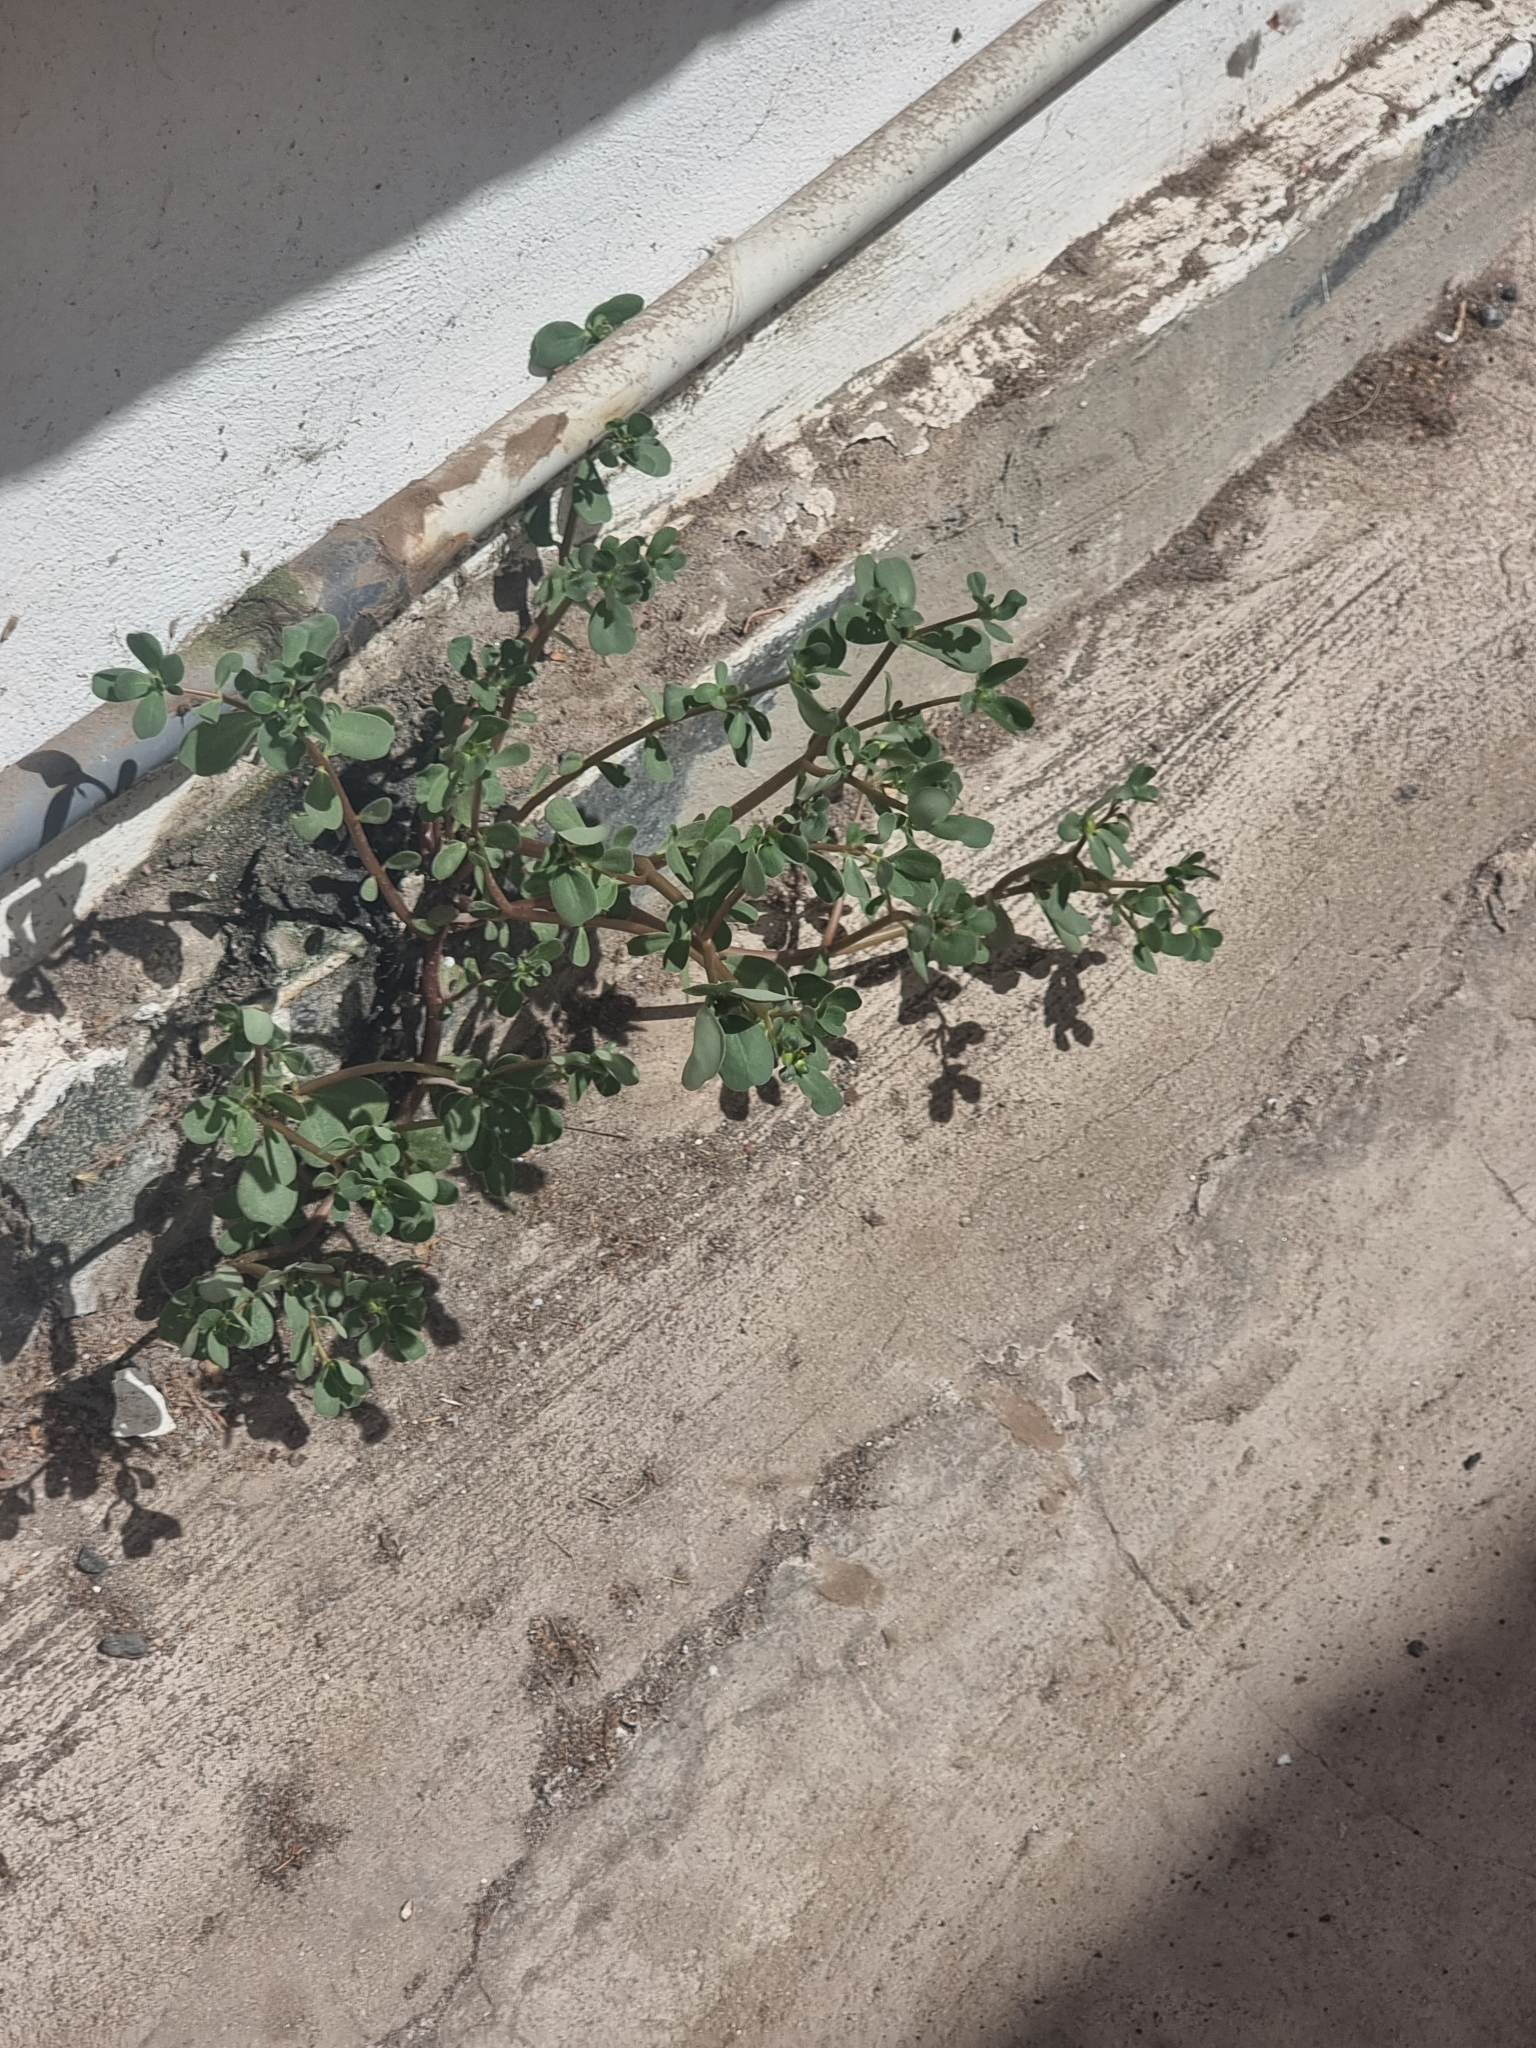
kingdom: Plantae
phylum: Tracheophyta
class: Magnoliopsida
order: Caryophyllales
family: Portulacaceae
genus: Portulaca
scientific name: Portulaca oleracea
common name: Common purslane
